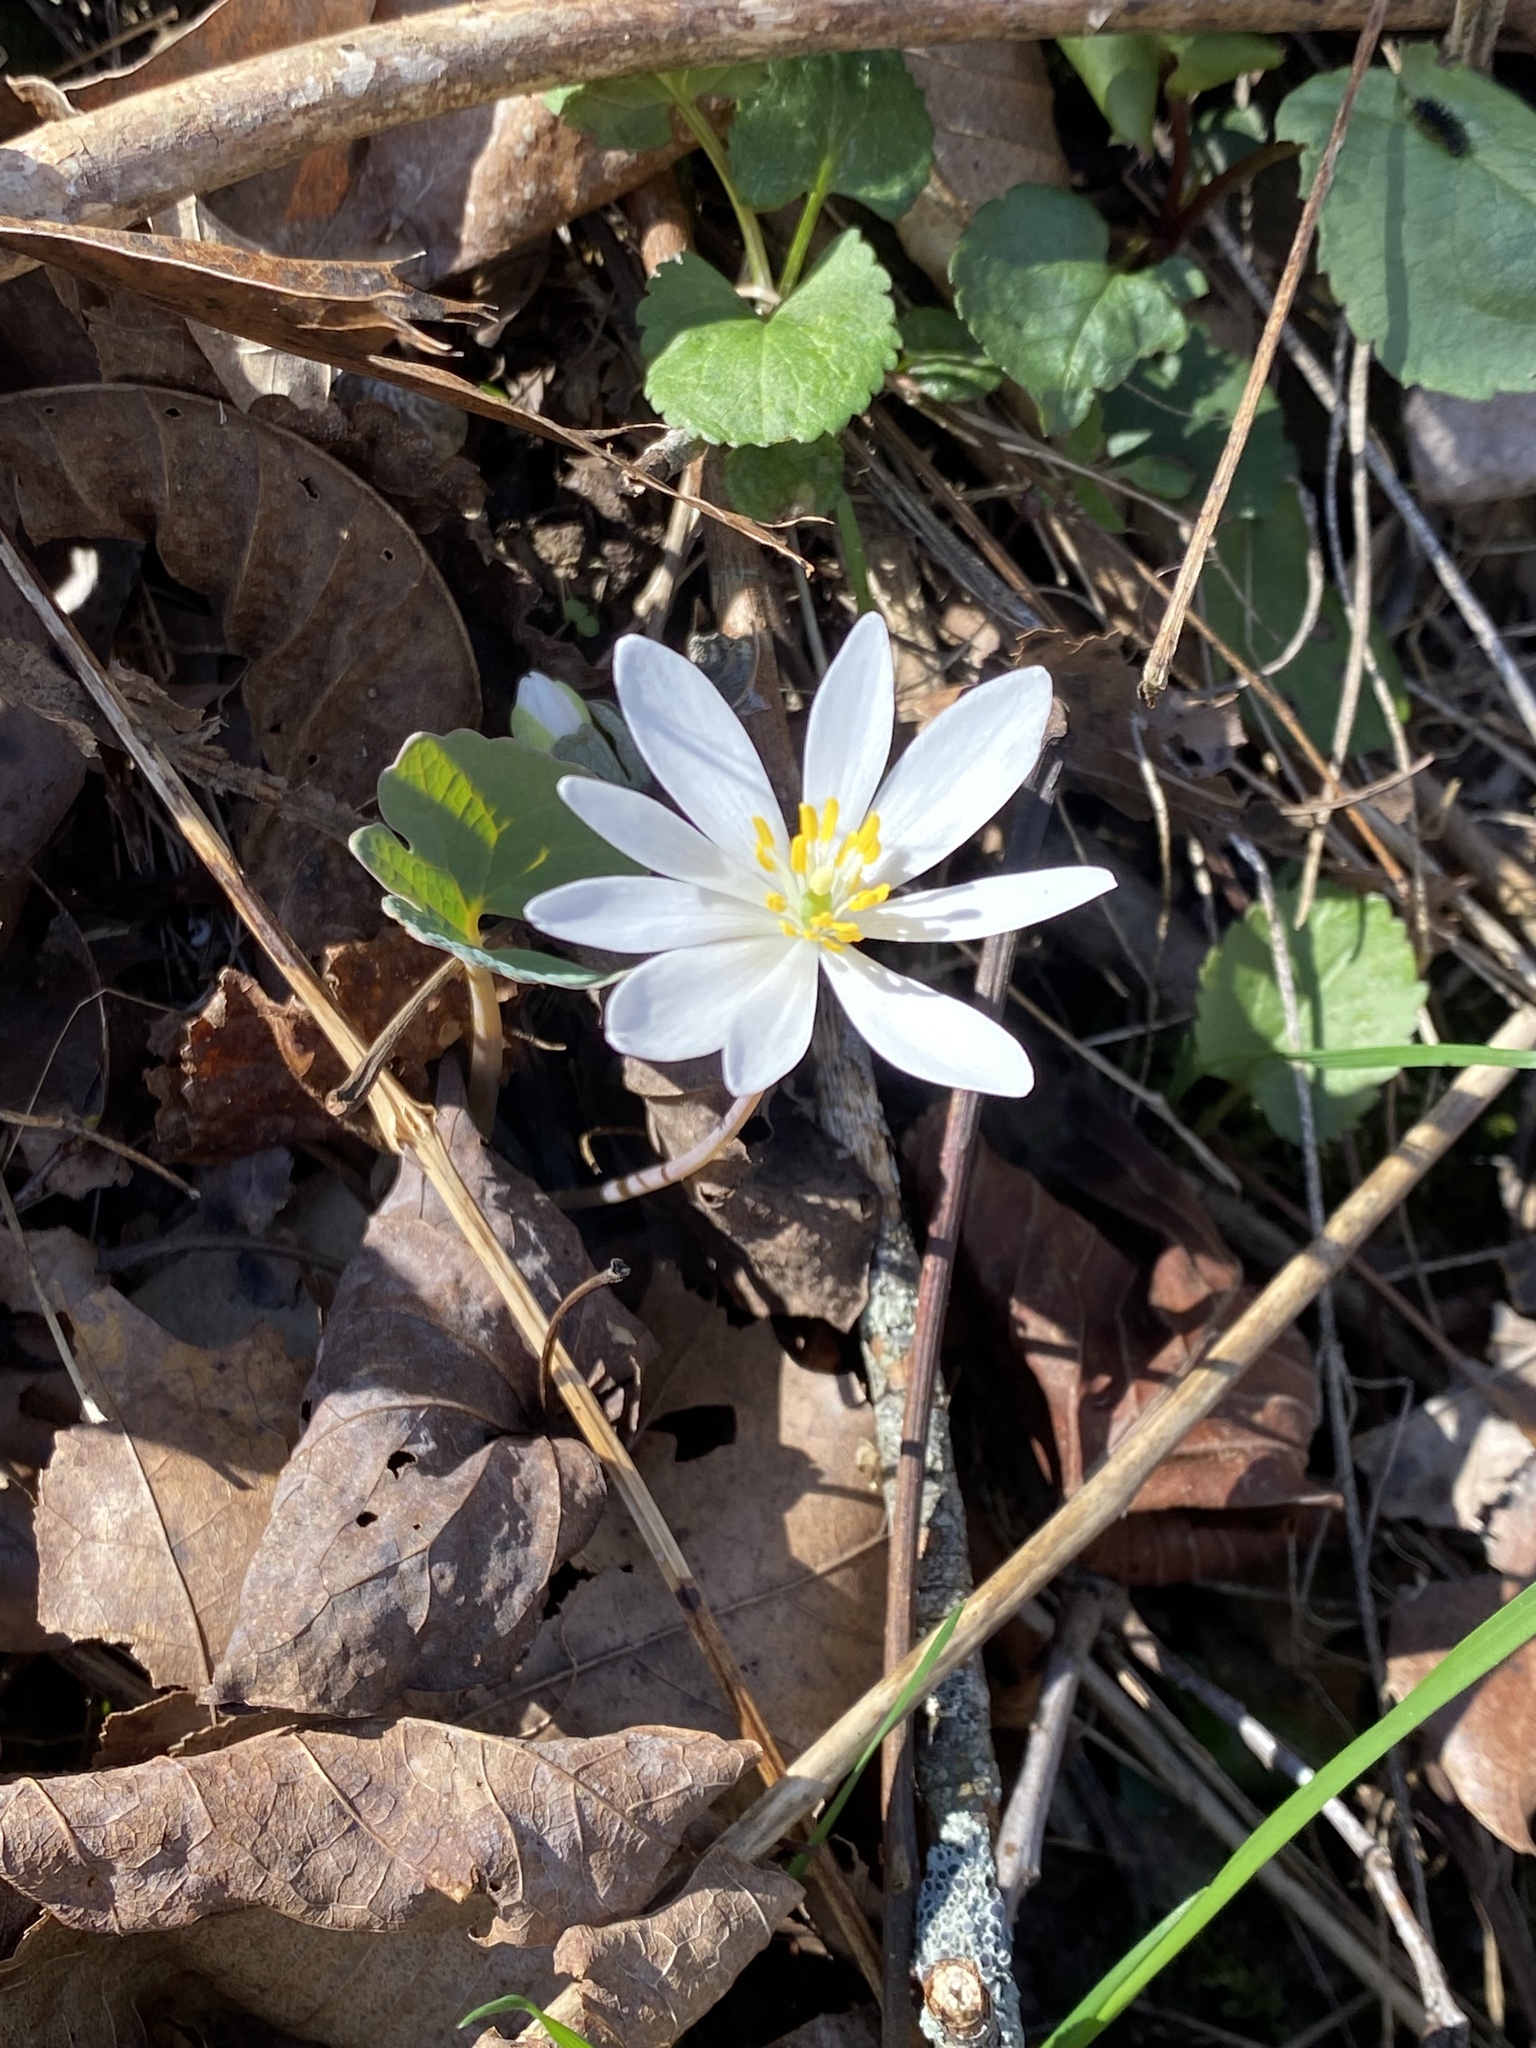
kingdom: Plantae
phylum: Tracheophyta
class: Magnoliopsida
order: Ranunculales
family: Papaveraceae
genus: Sanguinaria
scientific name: Sanguinaria canadensis
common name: Bloodroot
